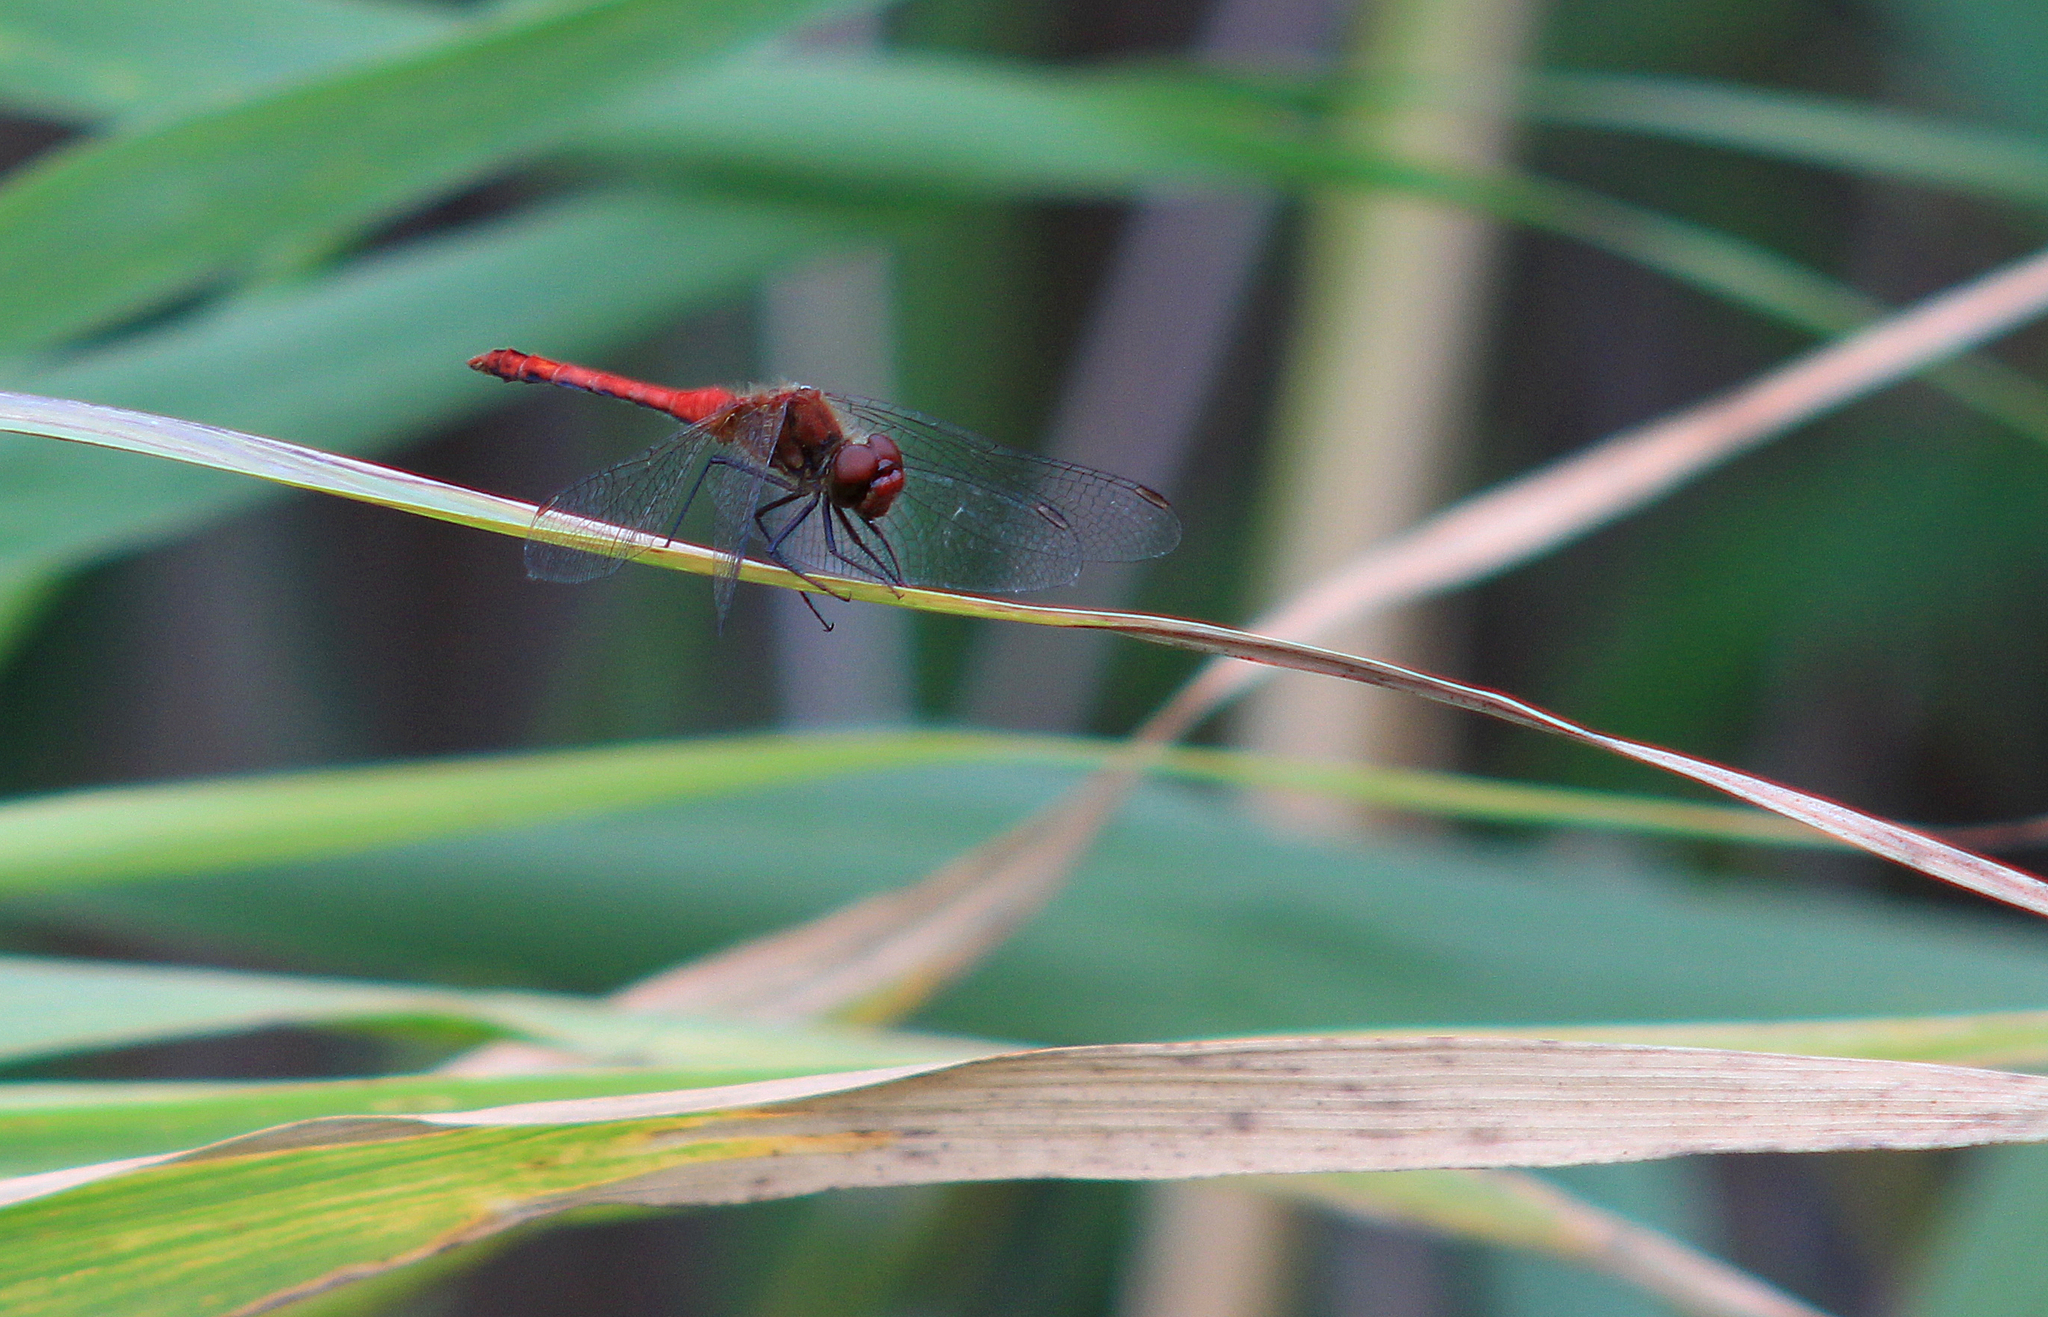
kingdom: Animalia
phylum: Arthropoda
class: Insecta
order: Odonata
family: Libellulidae
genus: Sympetrum
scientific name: Sympetrum sanguineum
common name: Ruddy darter
